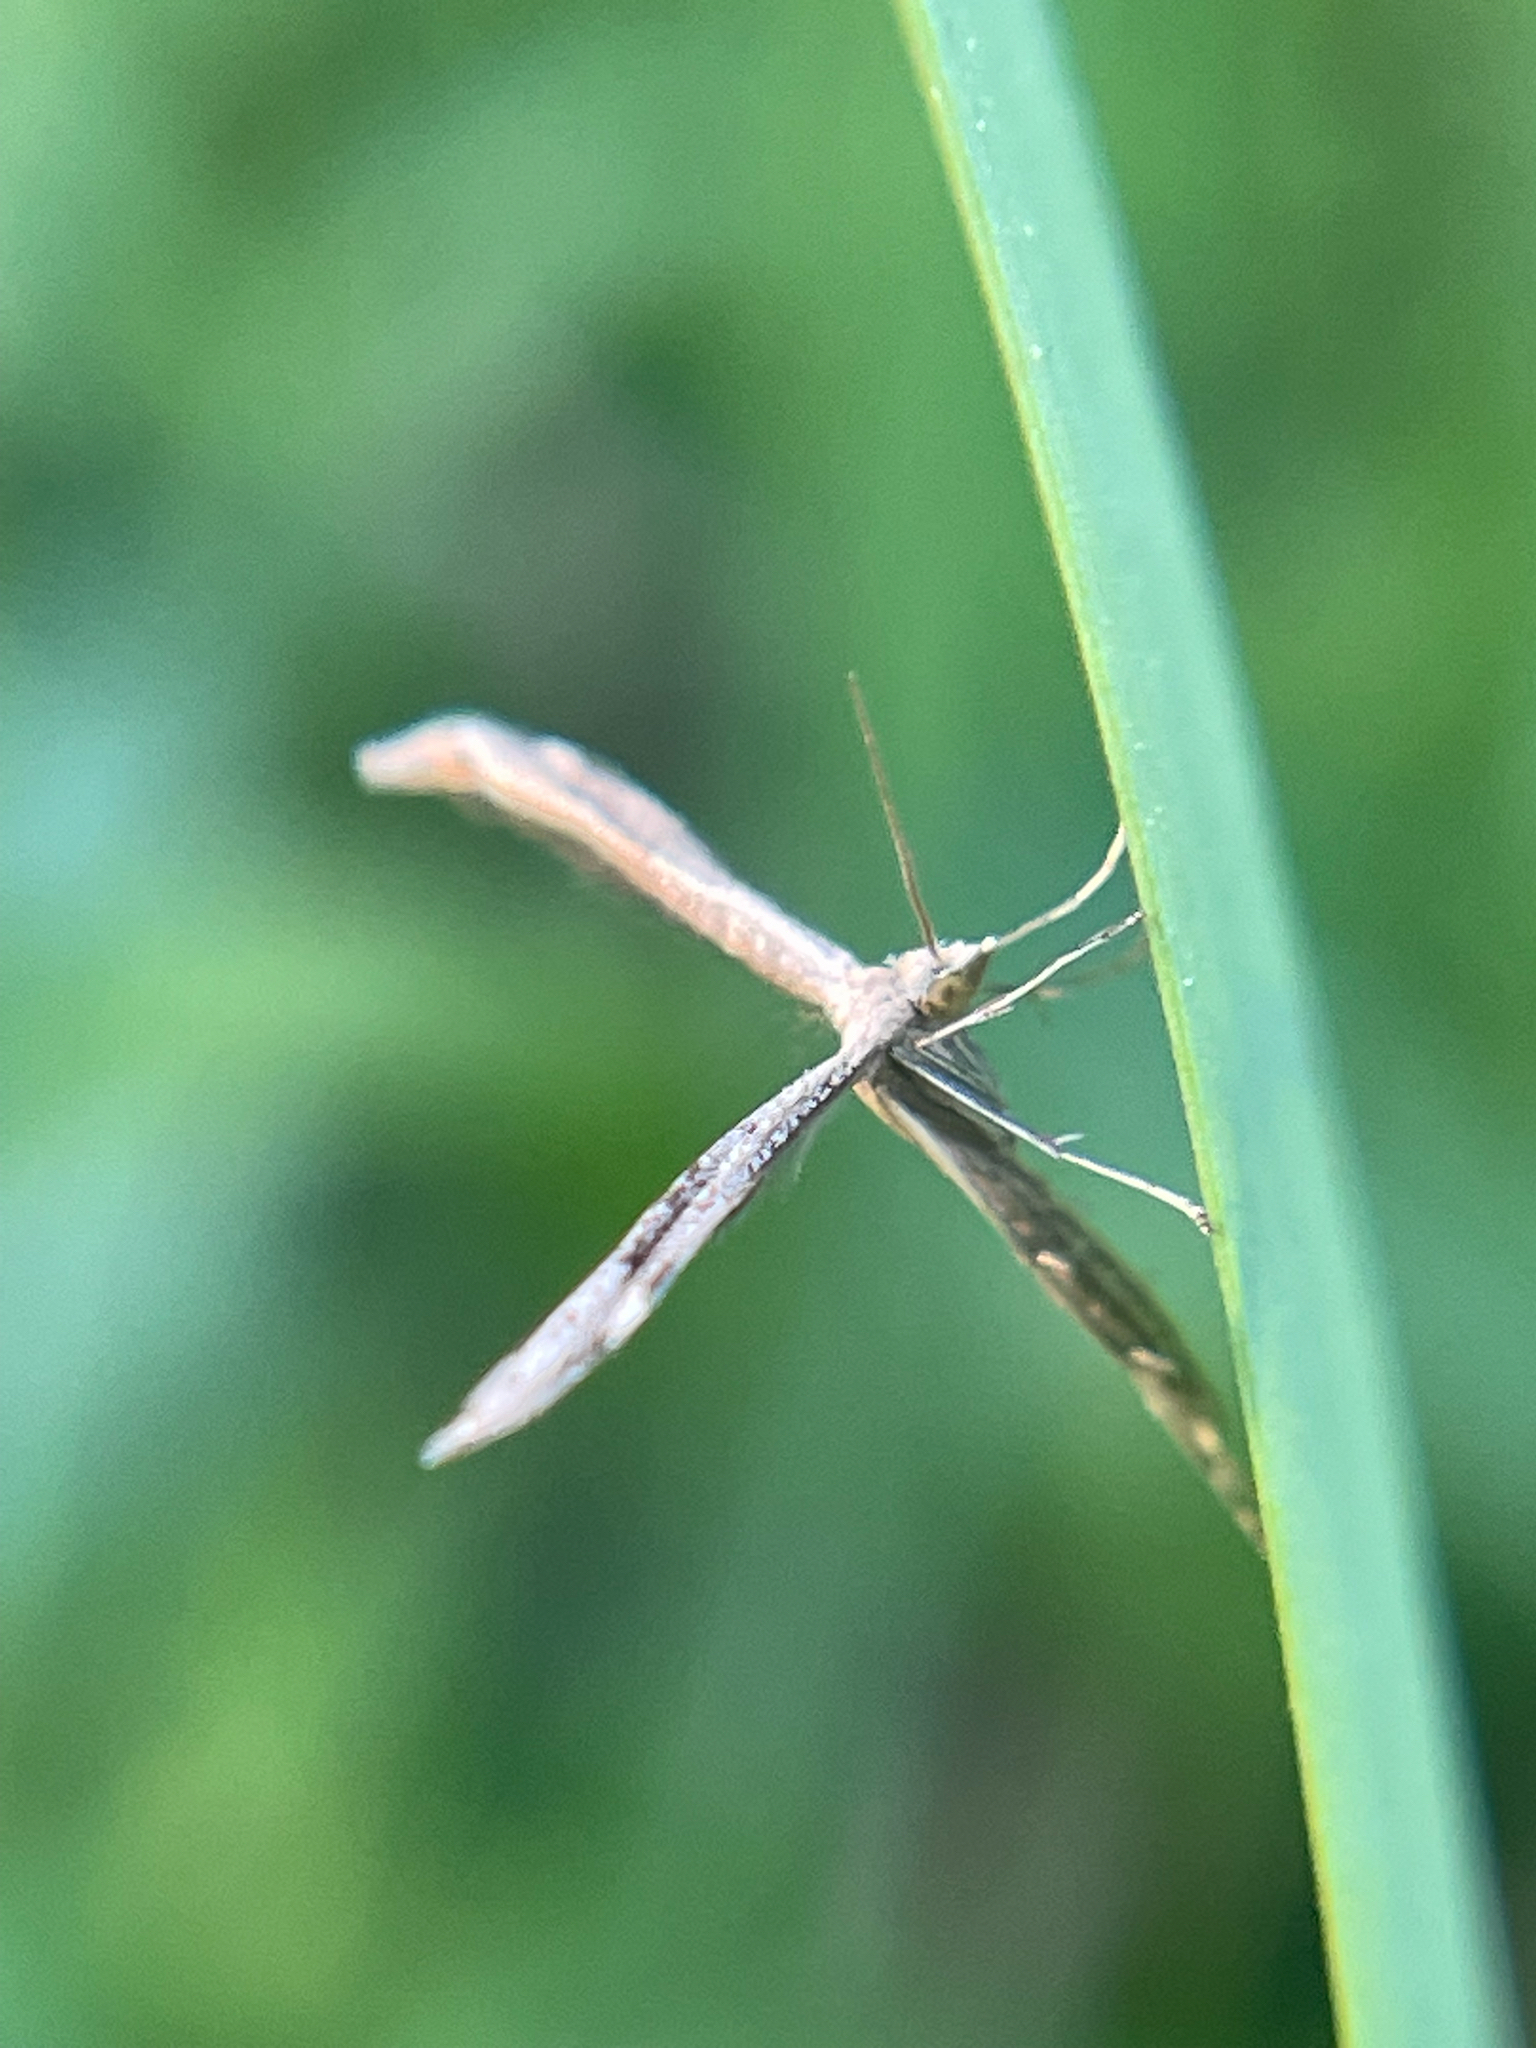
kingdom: Animalia
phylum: Arthropoda
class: Insecta
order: Lepidoptera
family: Pterophoridae
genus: Lioptilodes
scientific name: Lioptilodes albistriolatus
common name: Moth
